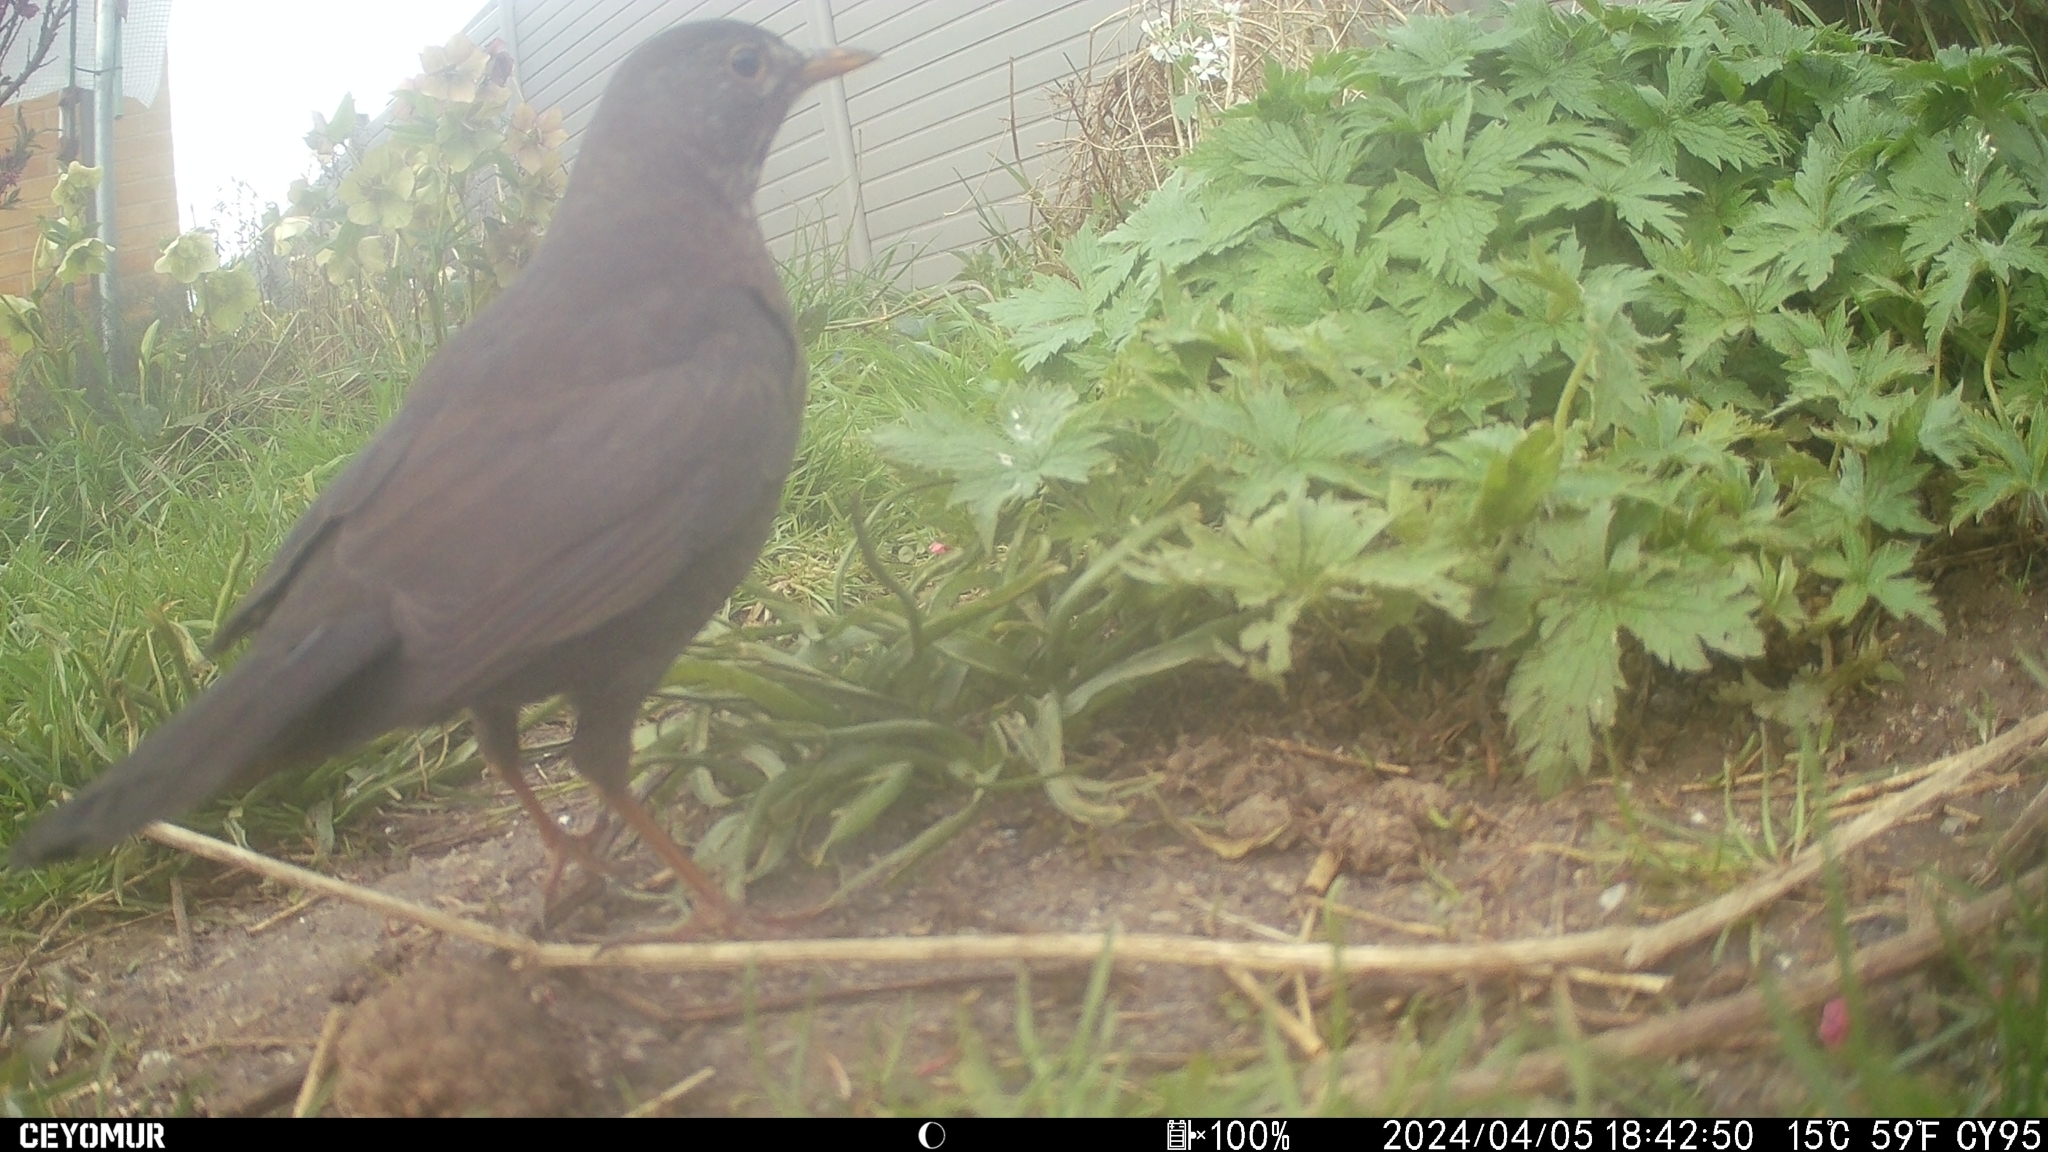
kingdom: Animalia
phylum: Chordata
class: Aves
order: Passeriformes
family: Turdidae
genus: Turdus
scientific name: Turdus merula
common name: Common blackbird
